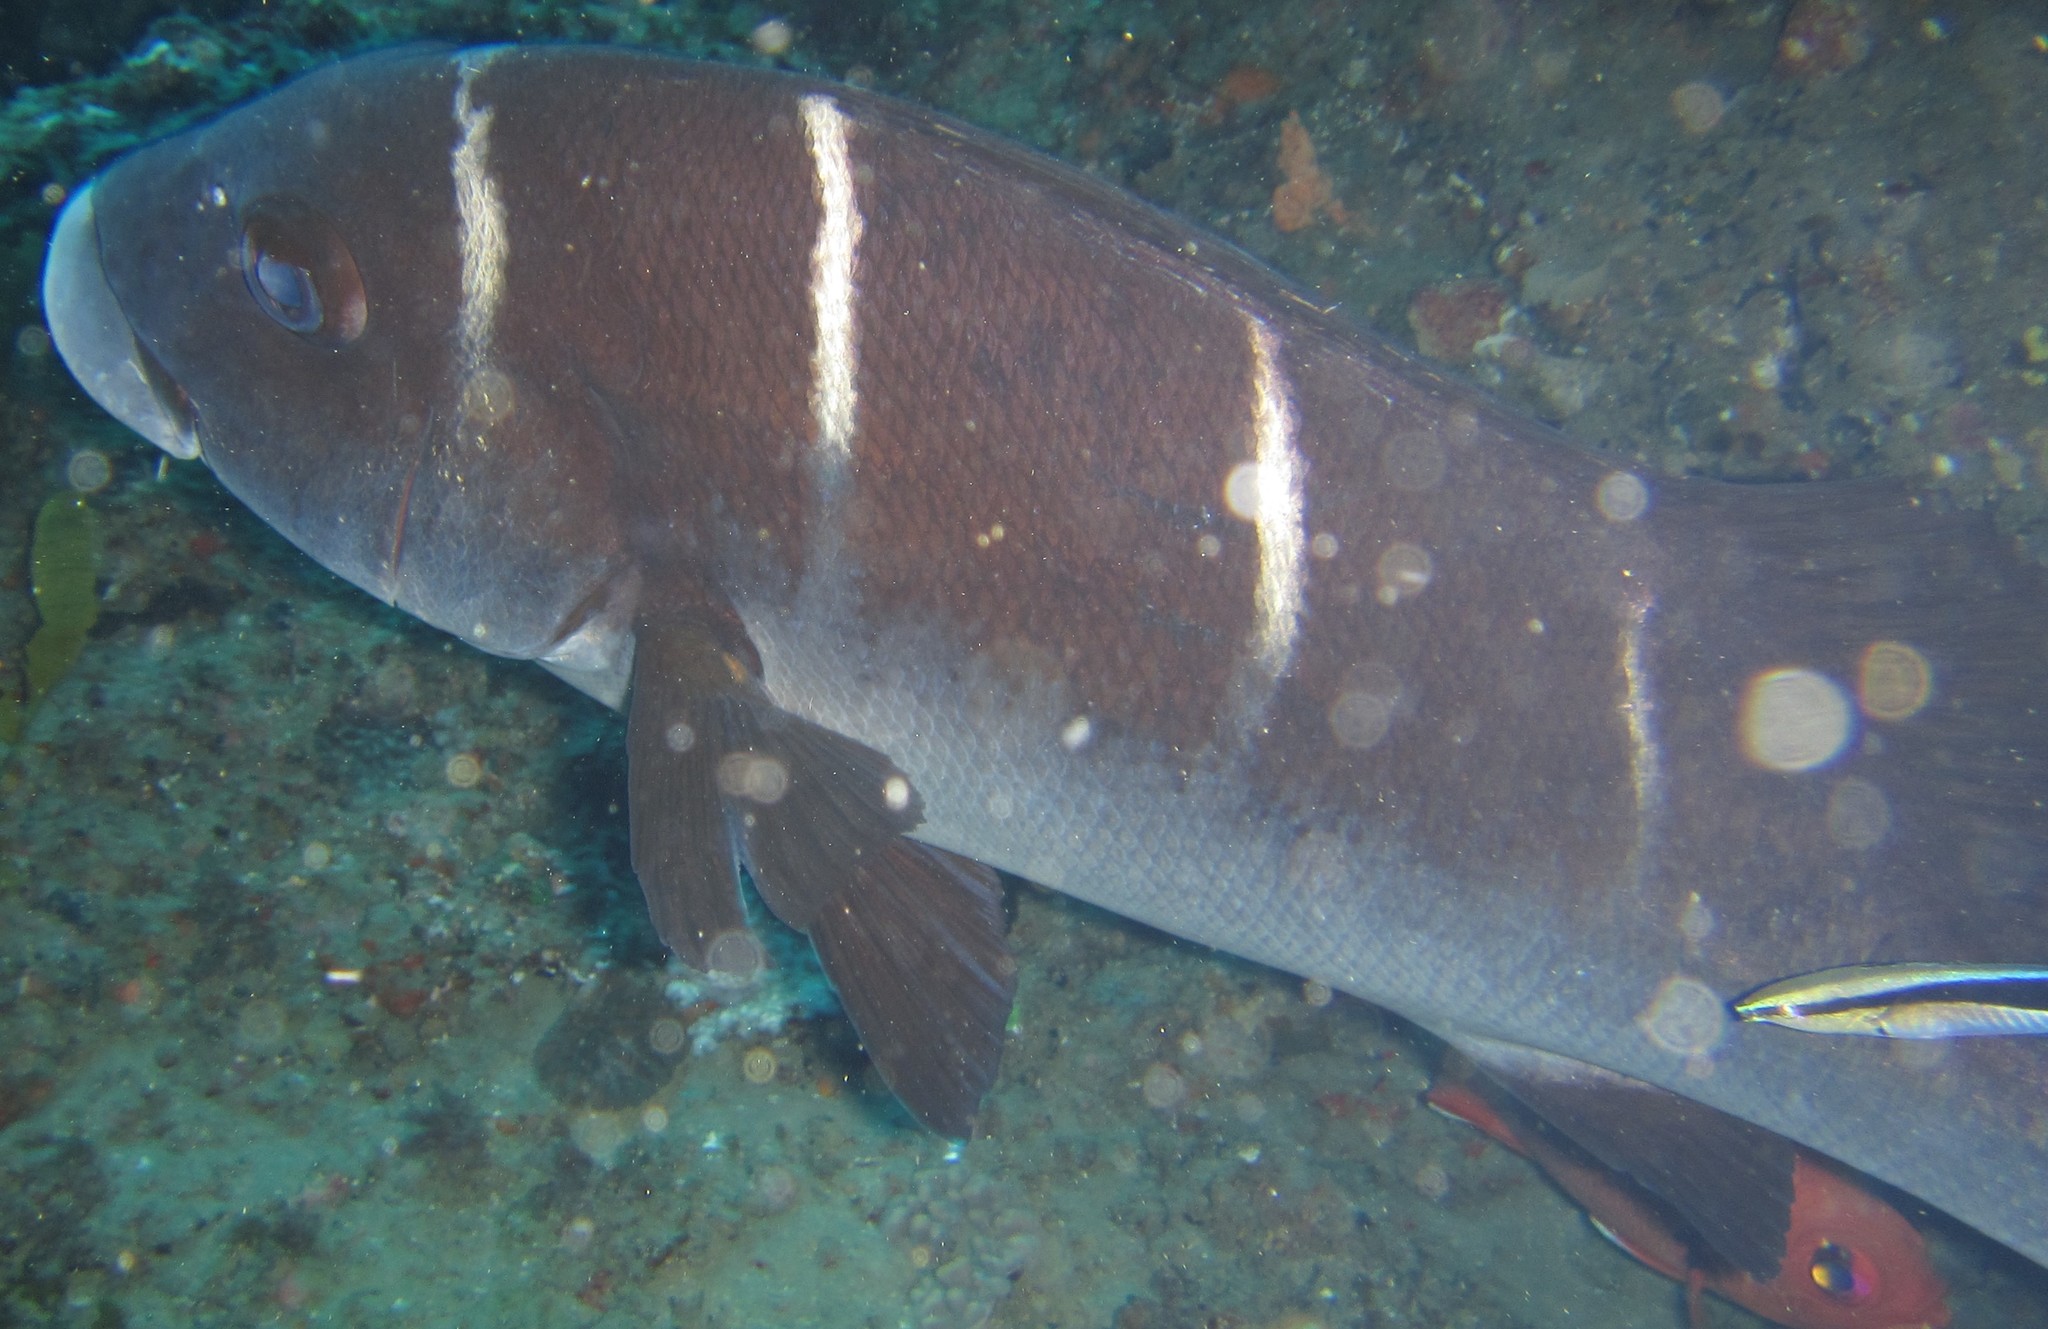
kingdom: Animalia
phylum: Chordata
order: Perciformes
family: Haemulidae
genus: Plectorhinchus
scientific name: Plectorhinchus playfairi
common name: Whitebarred rubberlip
